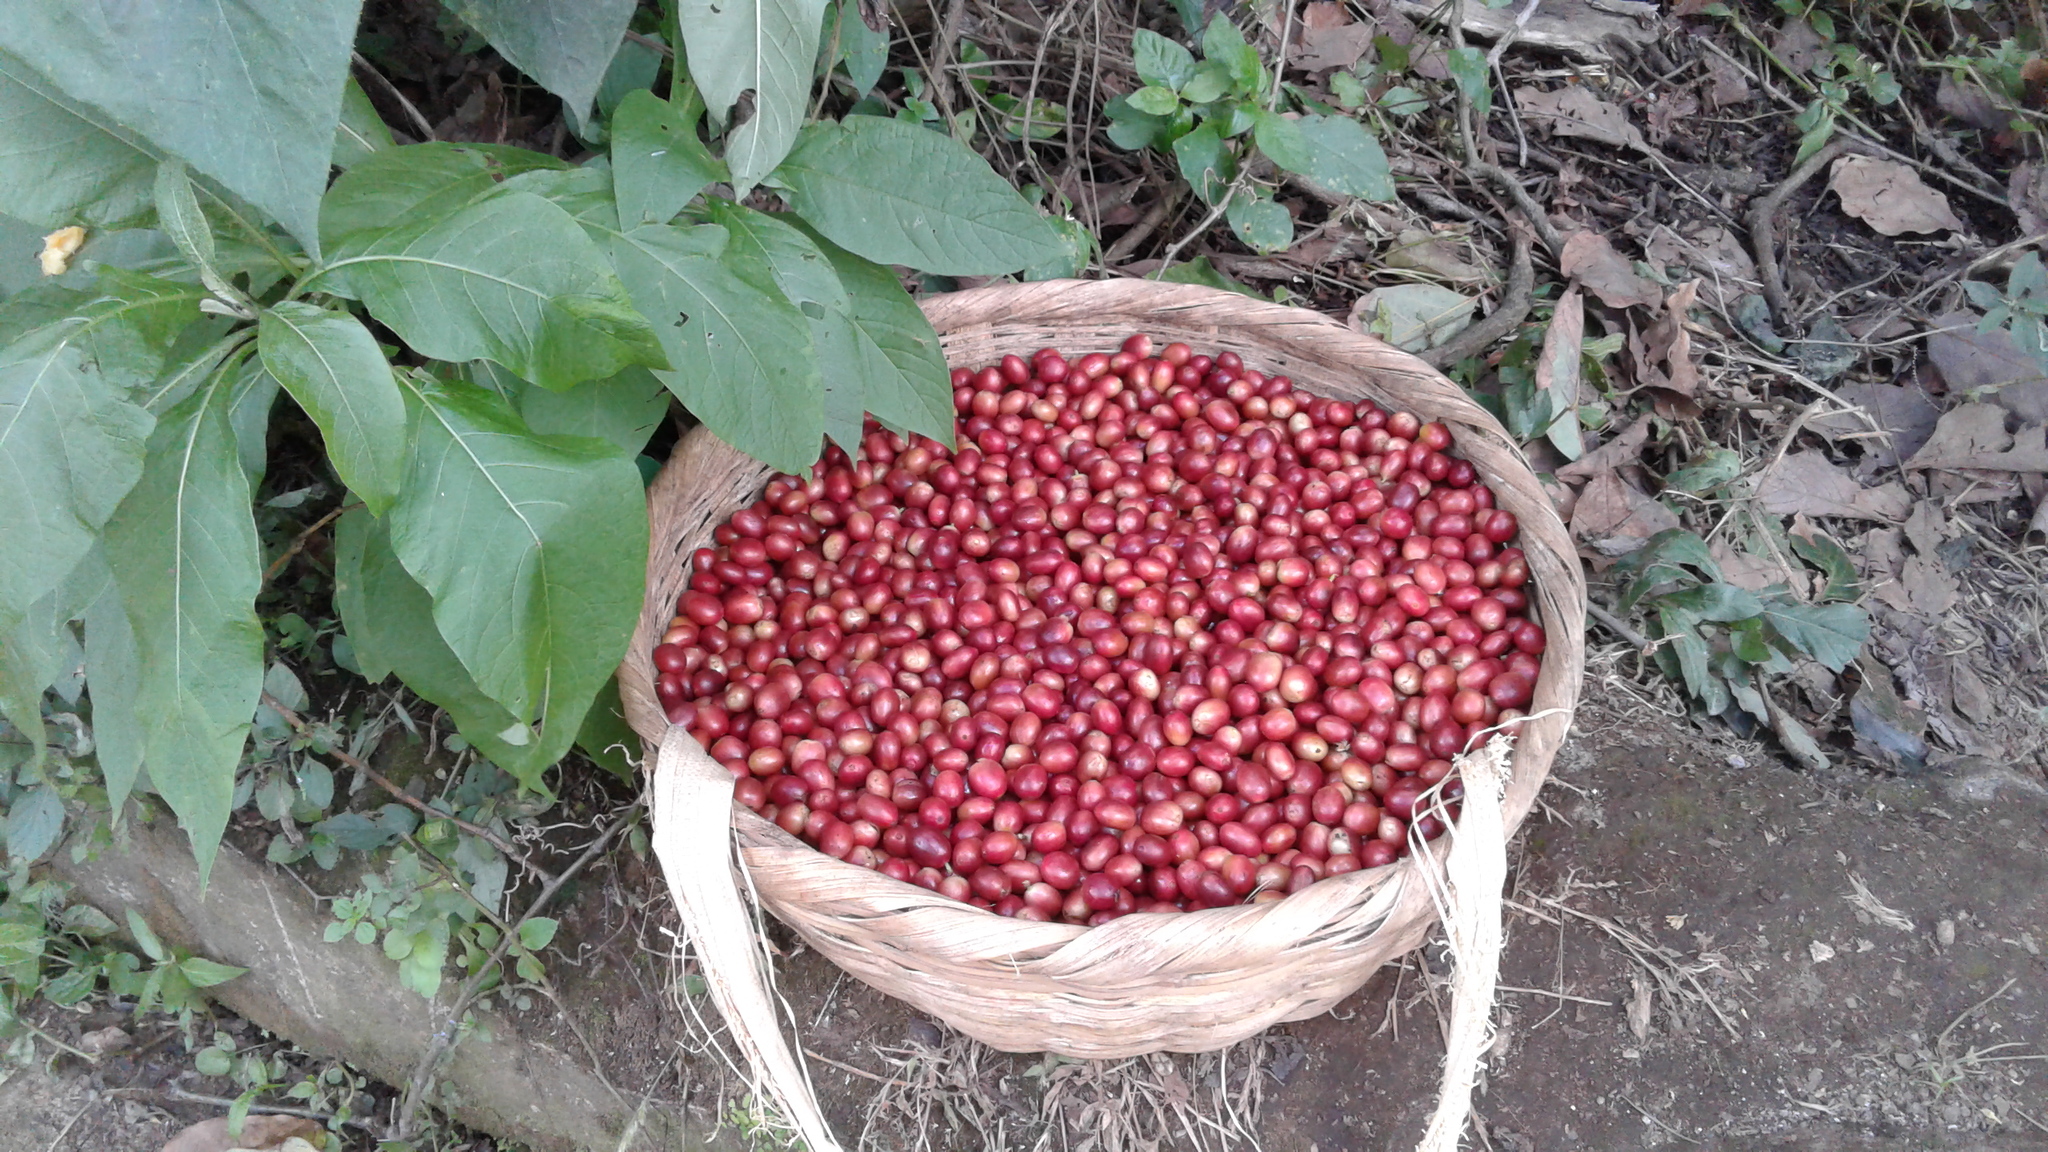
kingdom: Plantae
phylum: Tracheophyta
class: Magnoliopsida
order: Gentianales
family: Rubiaceae
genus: Coffea
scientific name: Coffea arabica
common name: Coffee
